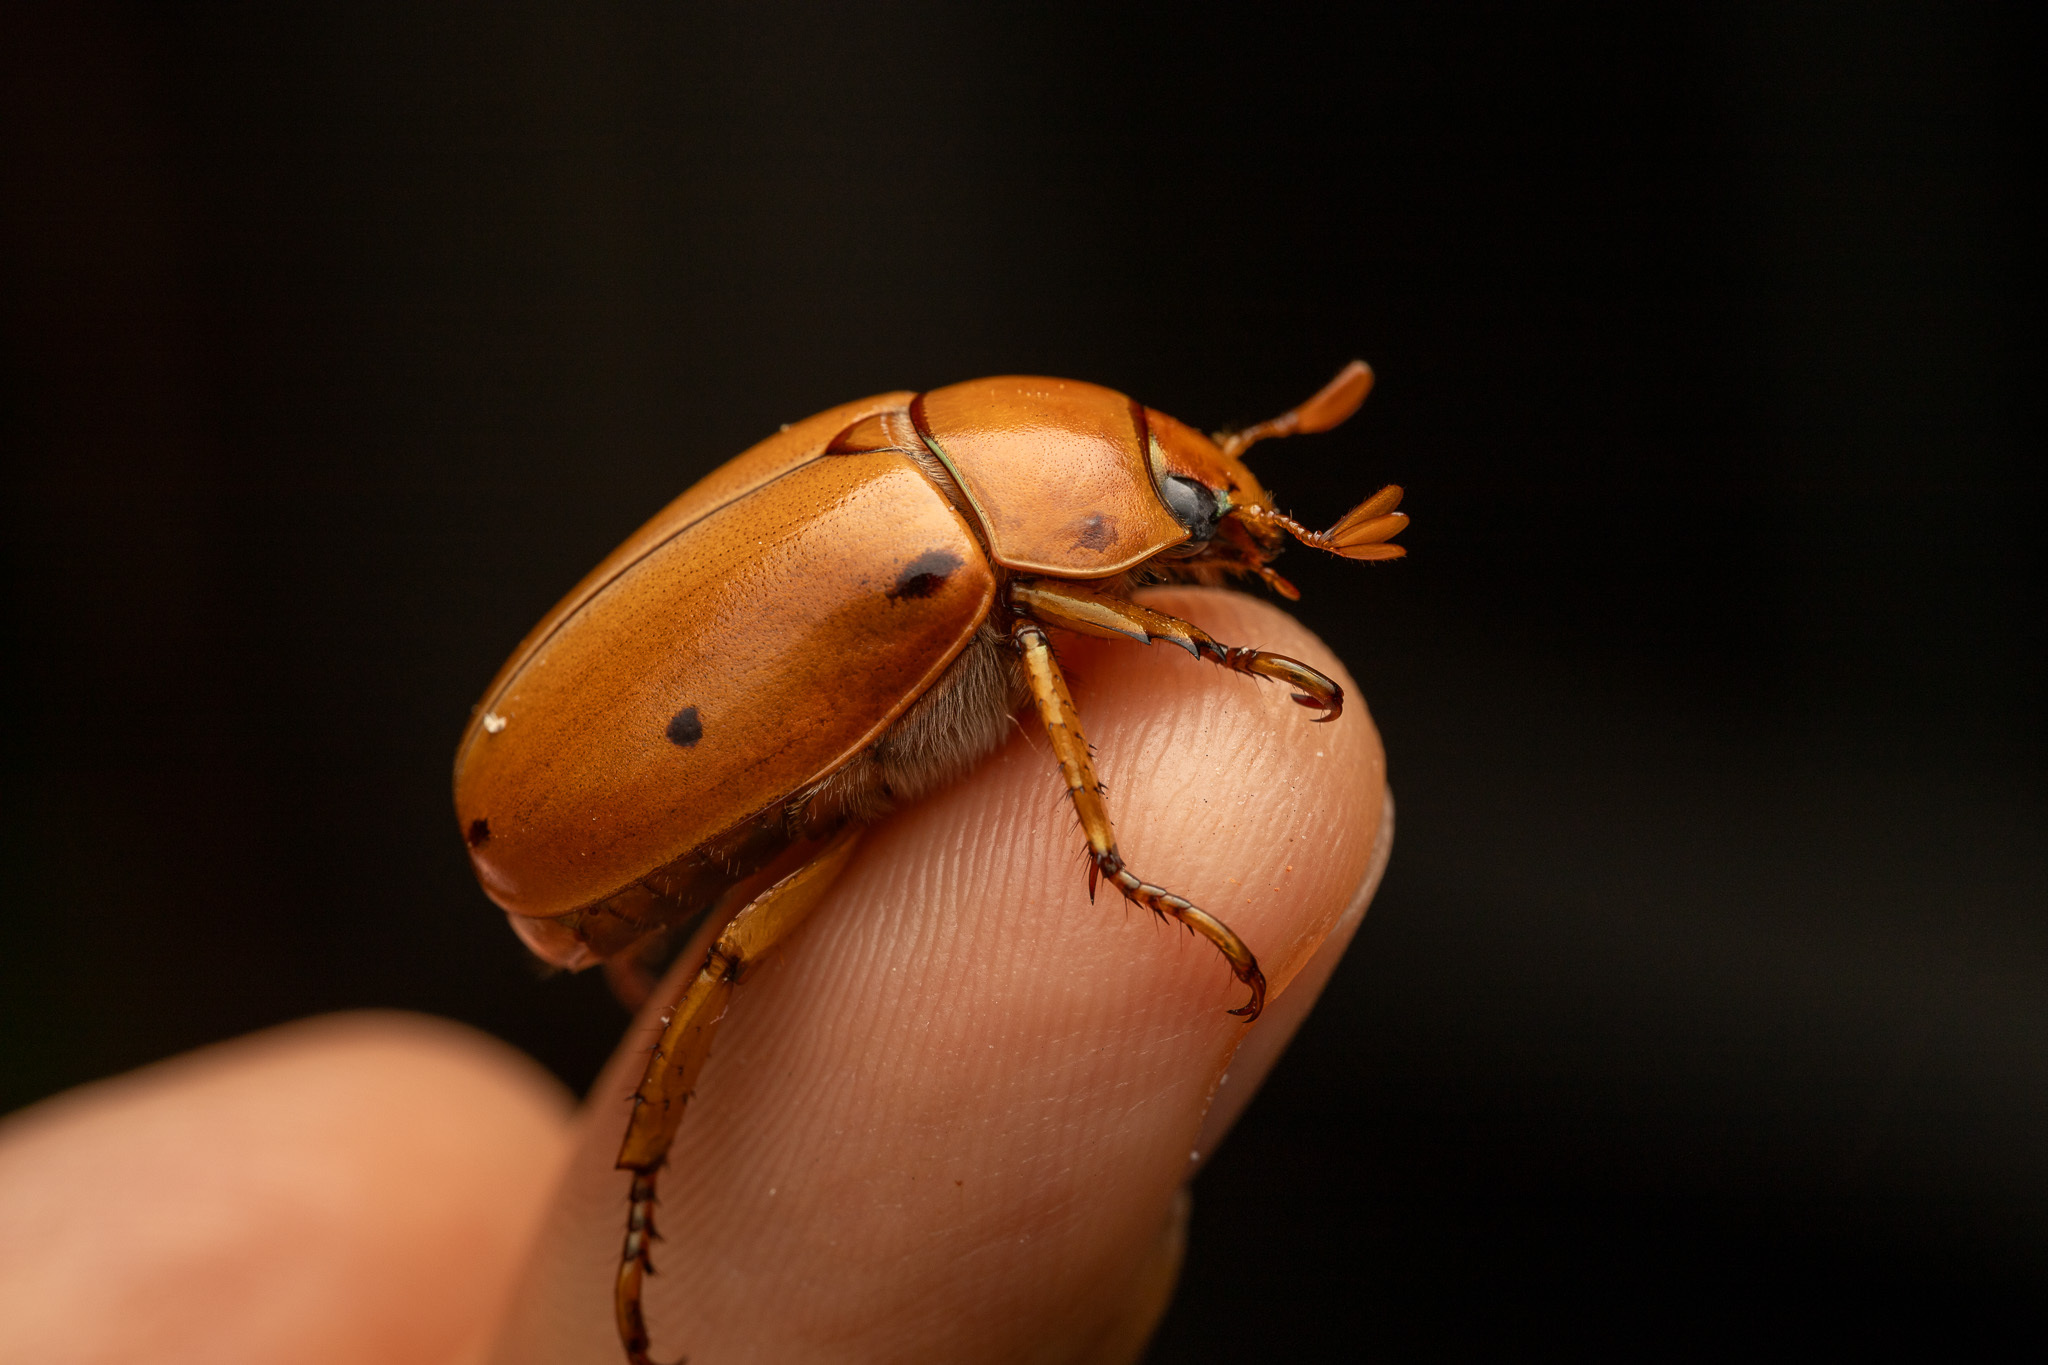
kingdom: Animalia
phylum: Arthropoda
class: Insecta
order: Coleoptera
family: Scarabaeidae
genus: Pelidnota
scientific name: Pelidnota punctata
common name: Grapevine beetle
